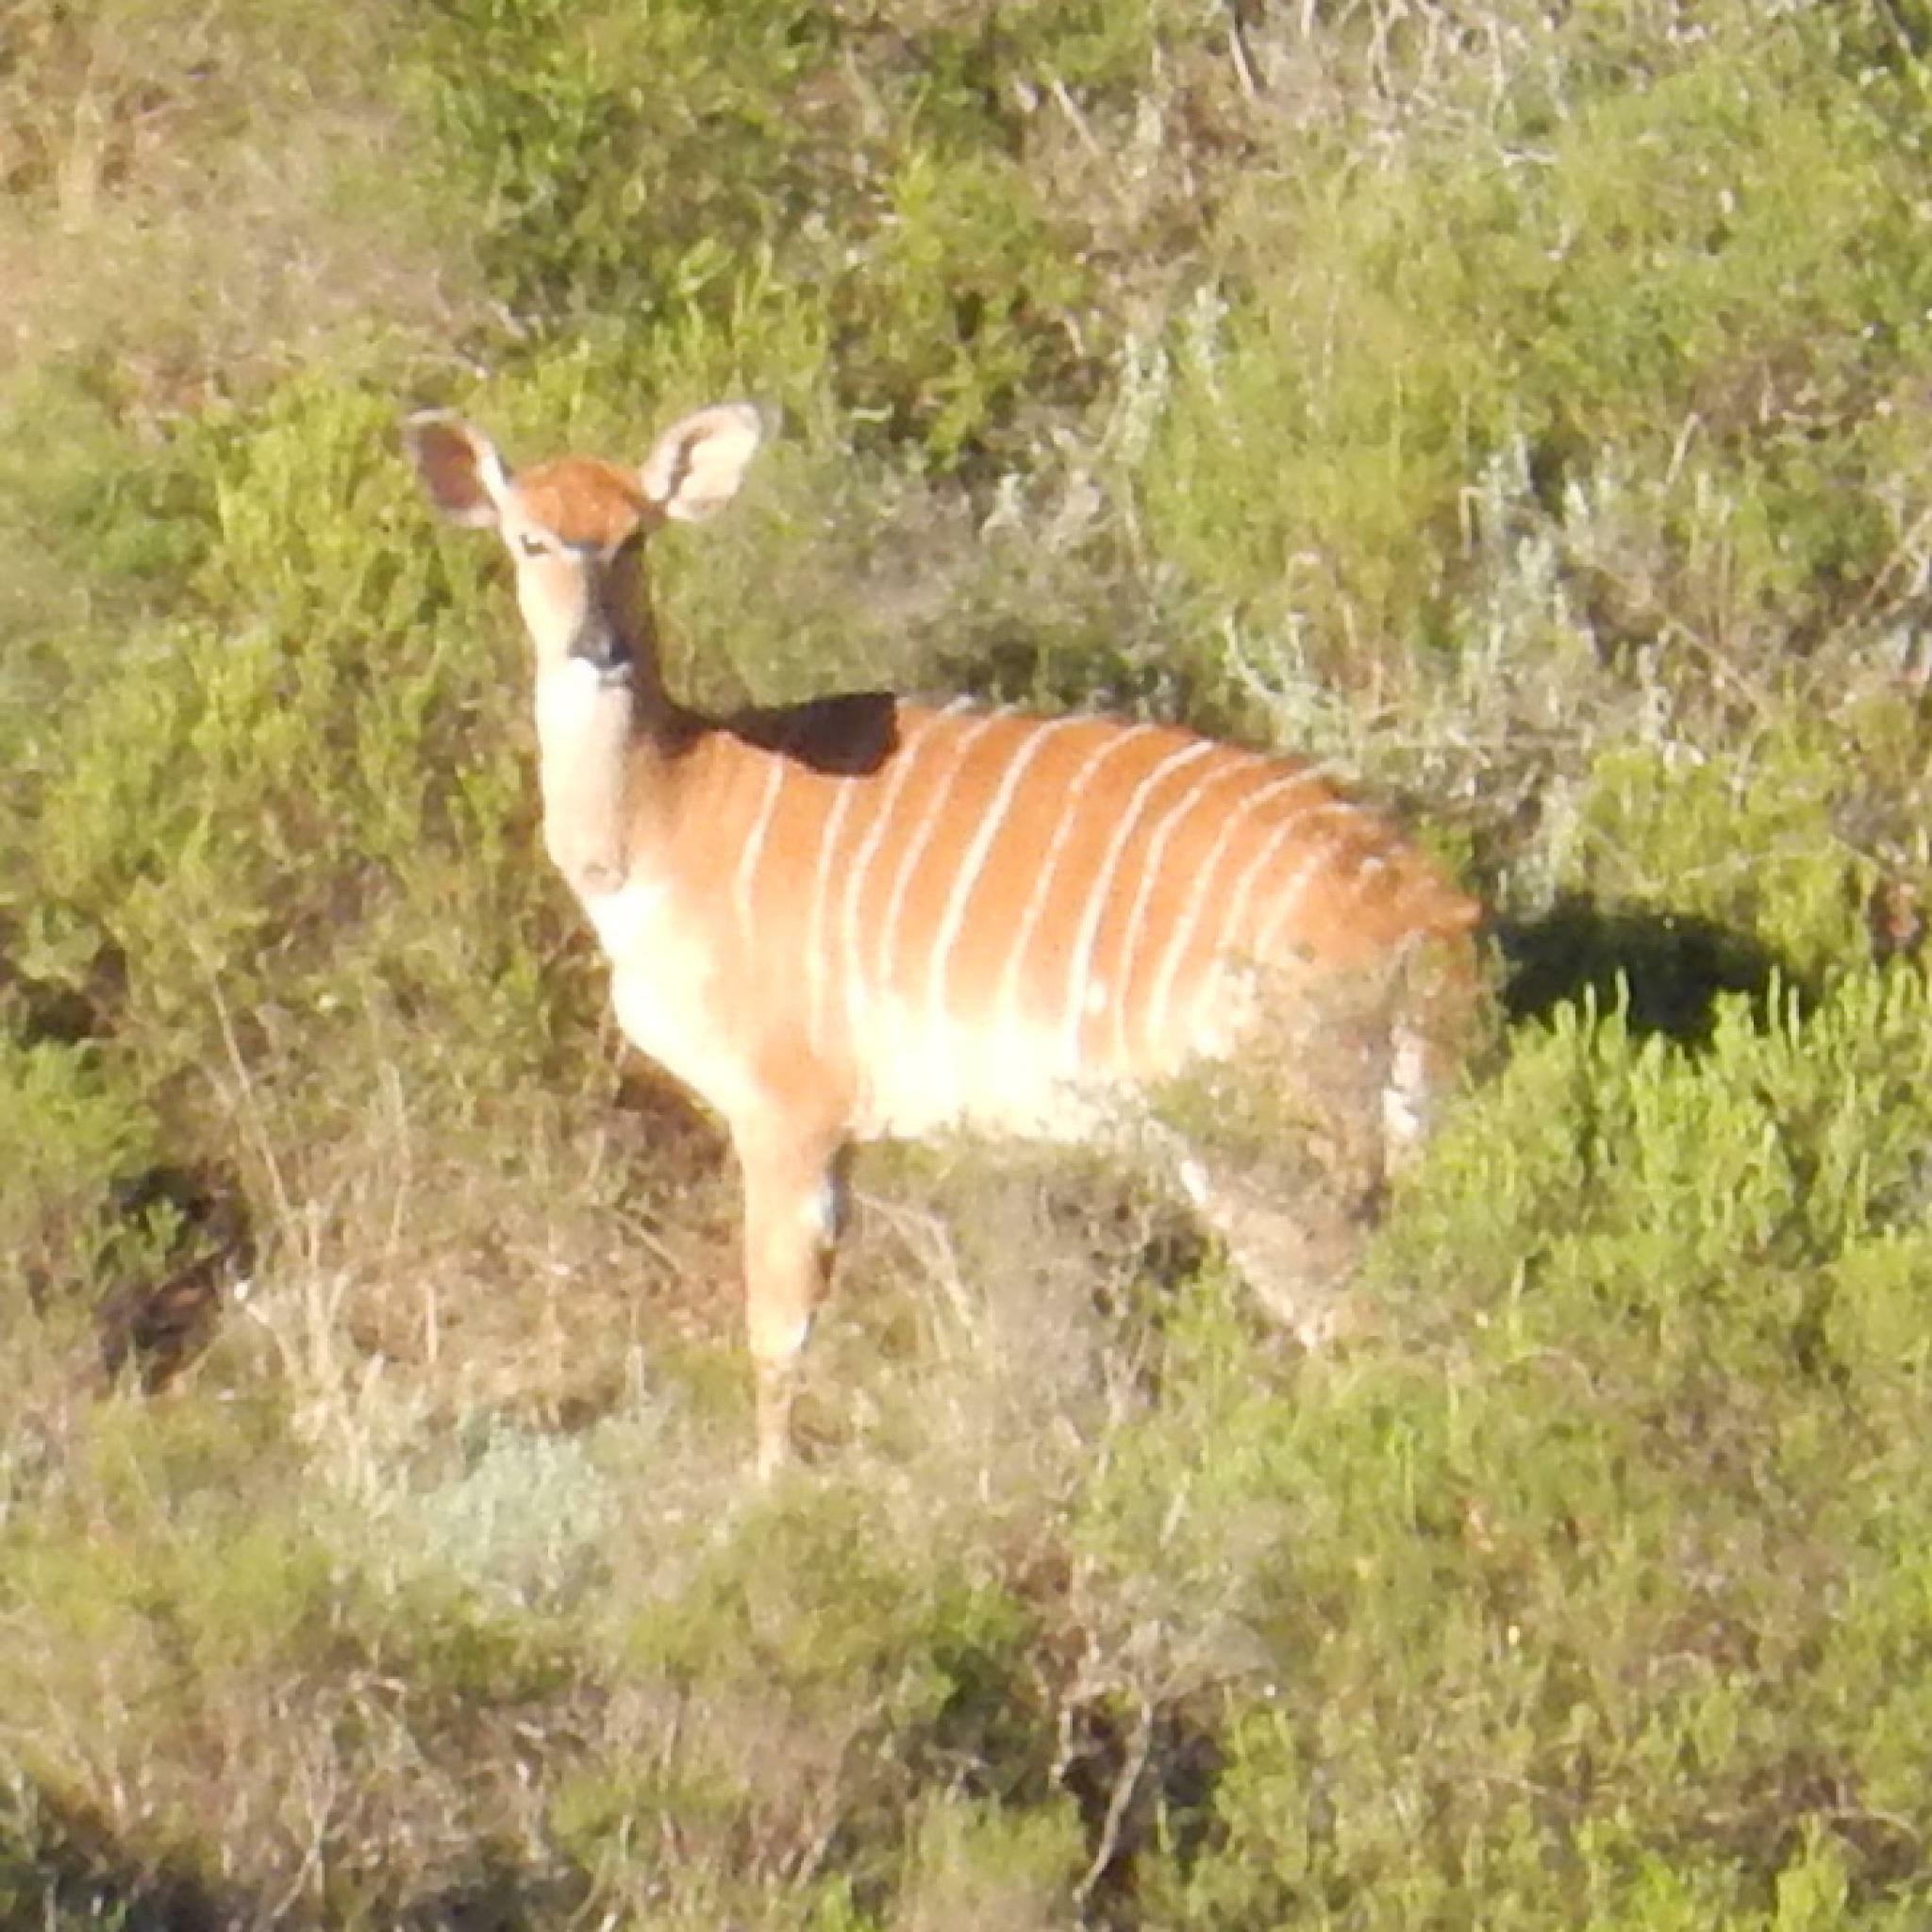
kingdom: Animalia
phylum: Chordata
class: Mammalia
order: Artiodactyla
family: Bovidae
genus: Tragelaphus
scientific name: Tragelaphus angasii
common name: Nyala
